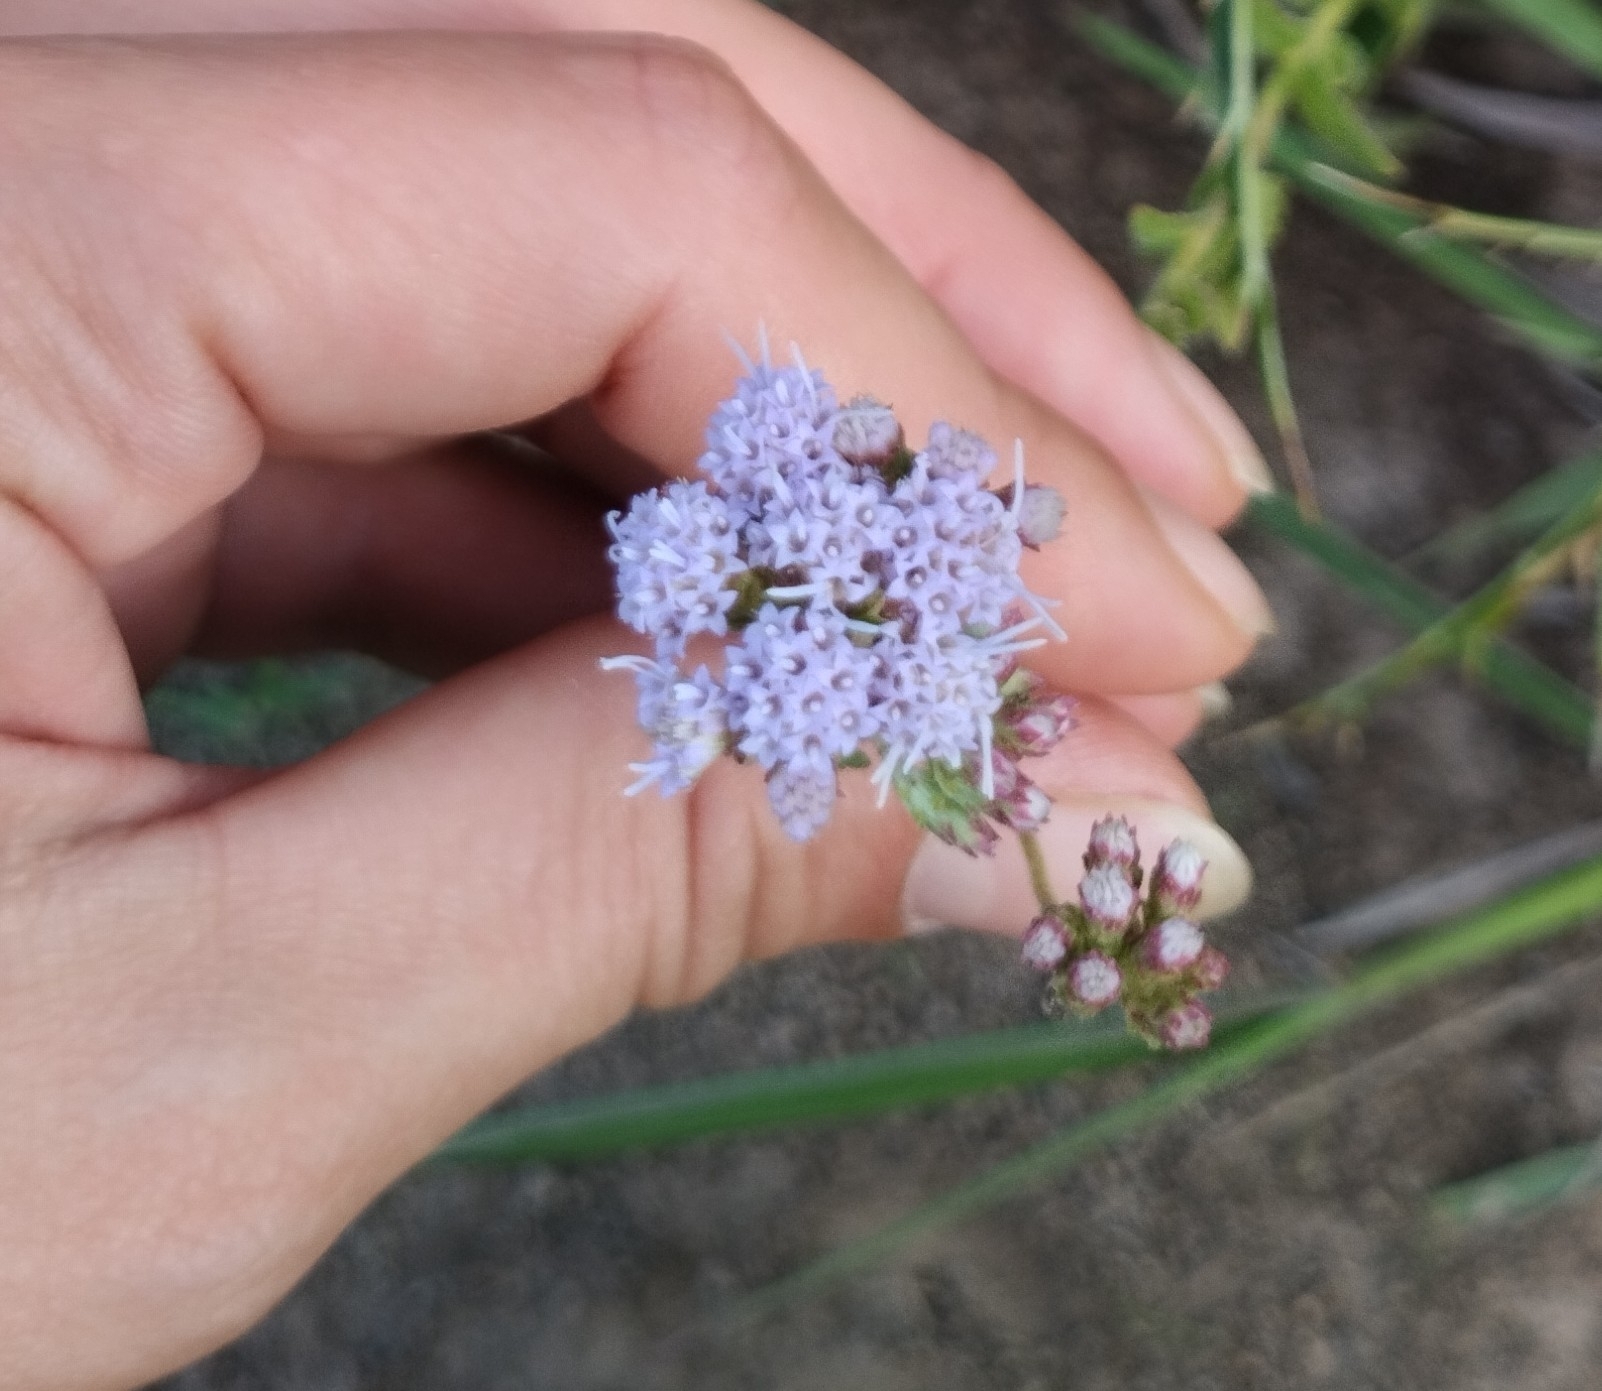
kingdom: Plantae
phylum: Tracheophyta
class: Magnoliopsida
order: Asterales
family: Asteraceae
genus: Chromolaena
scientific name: Chromolaena hirsuta
